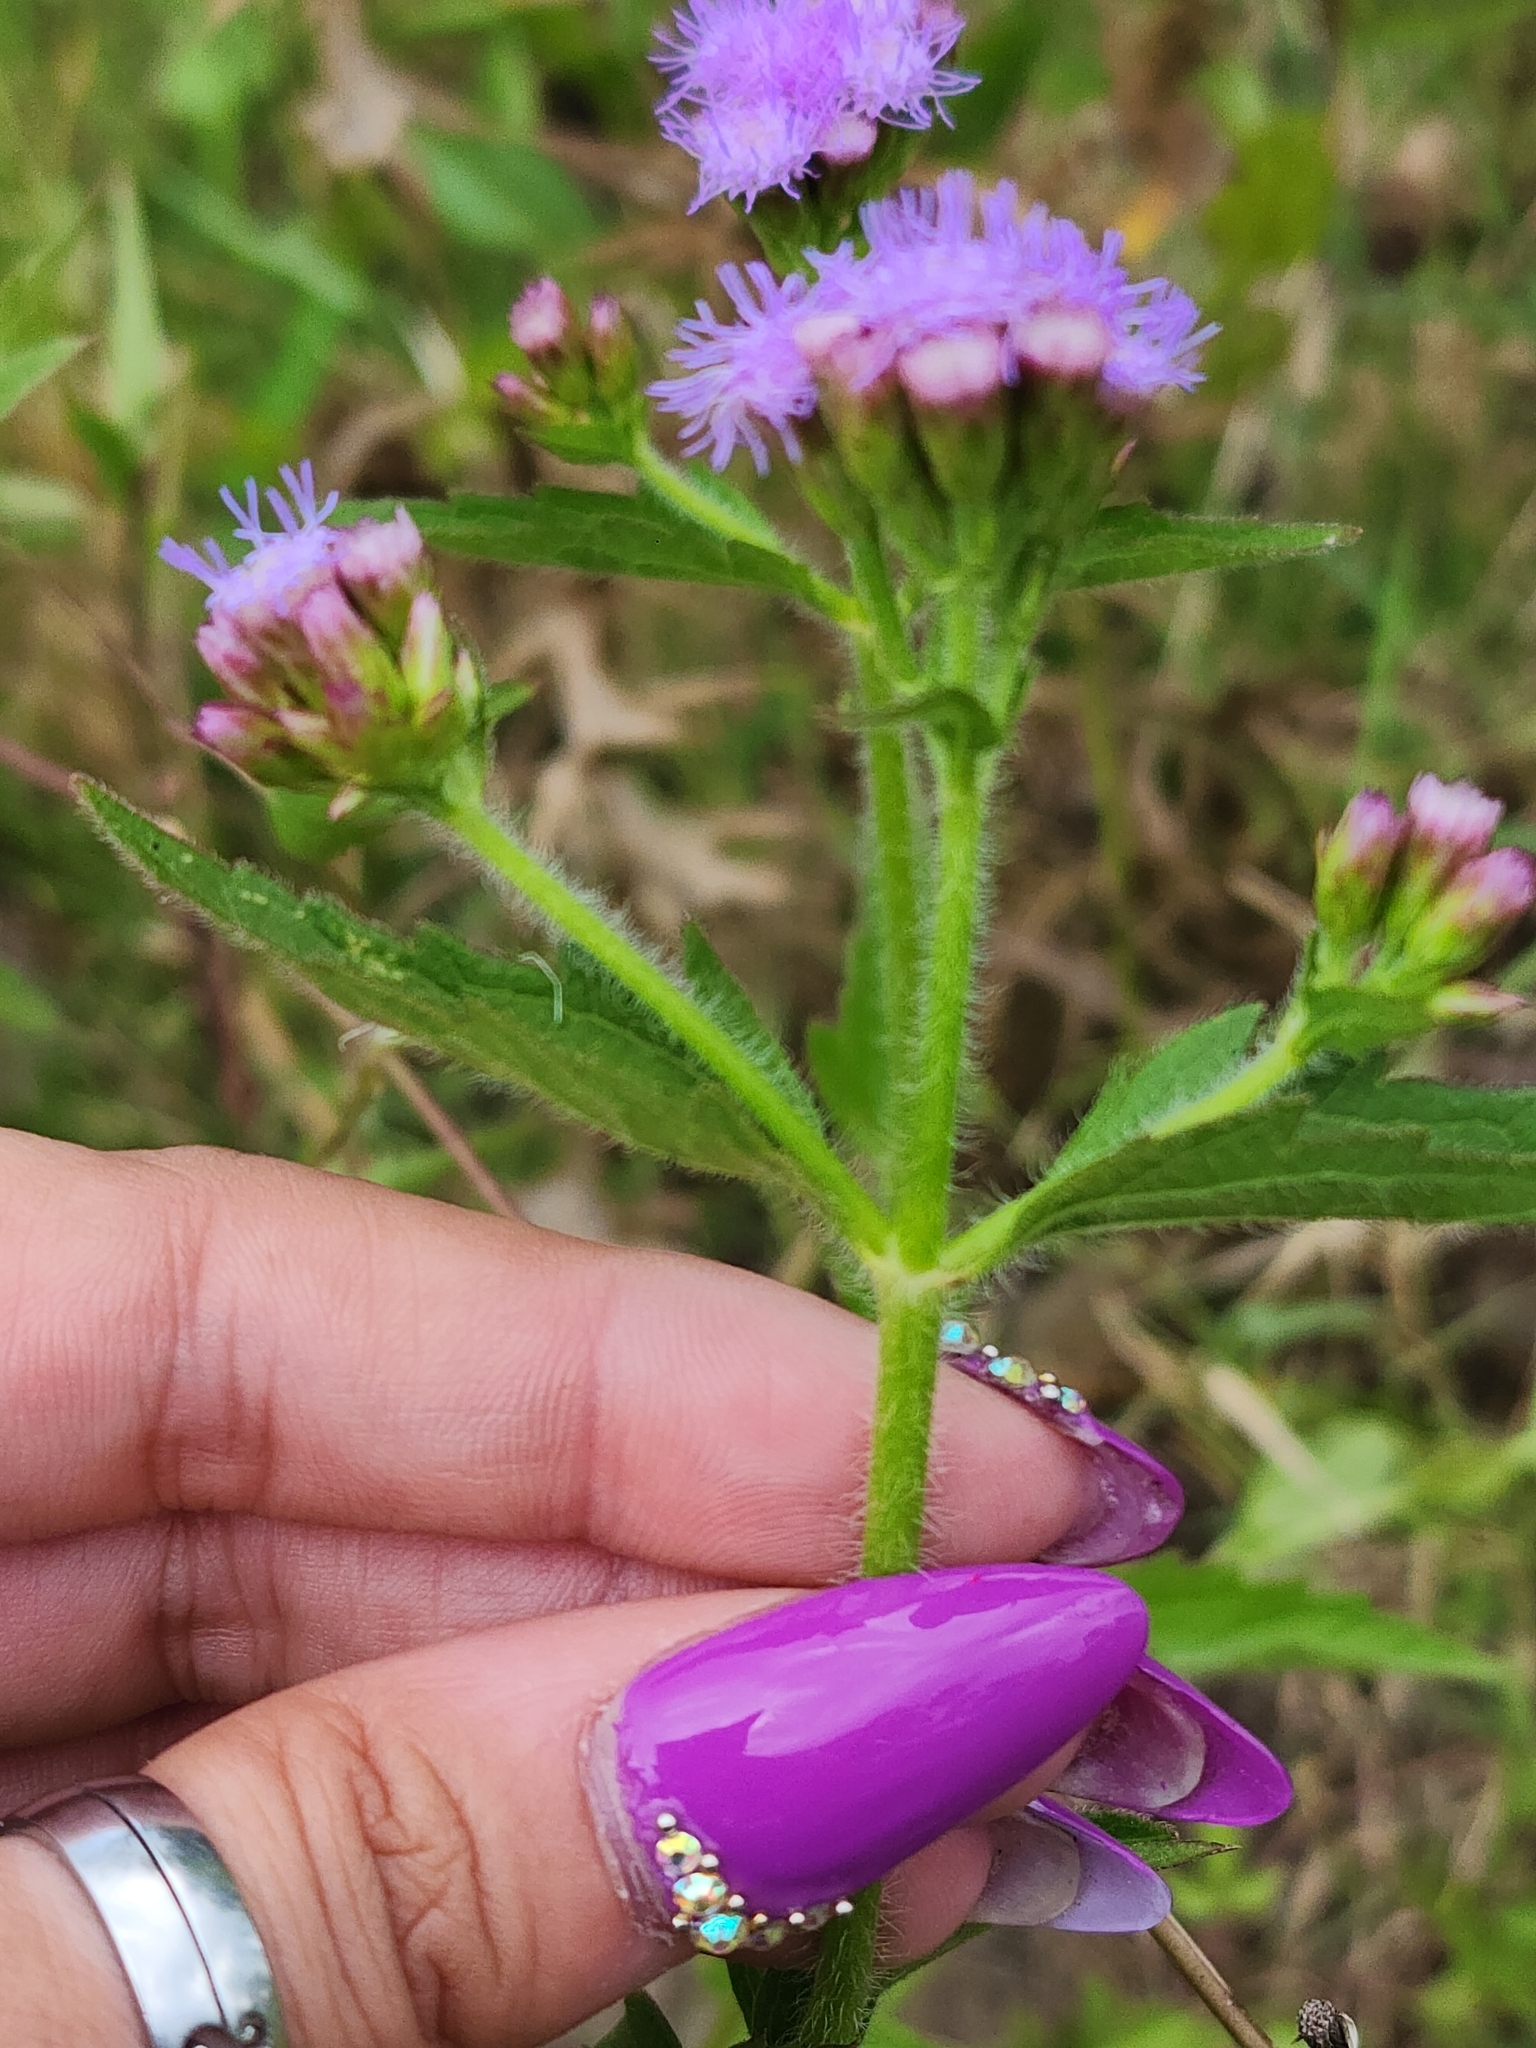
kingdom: Plantae
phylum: Tracheophyta
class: Magnoliopsida
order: Asterales
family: Asteraceae
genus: Praxelis
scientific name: Praxelis clematidea
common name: Praxelis
